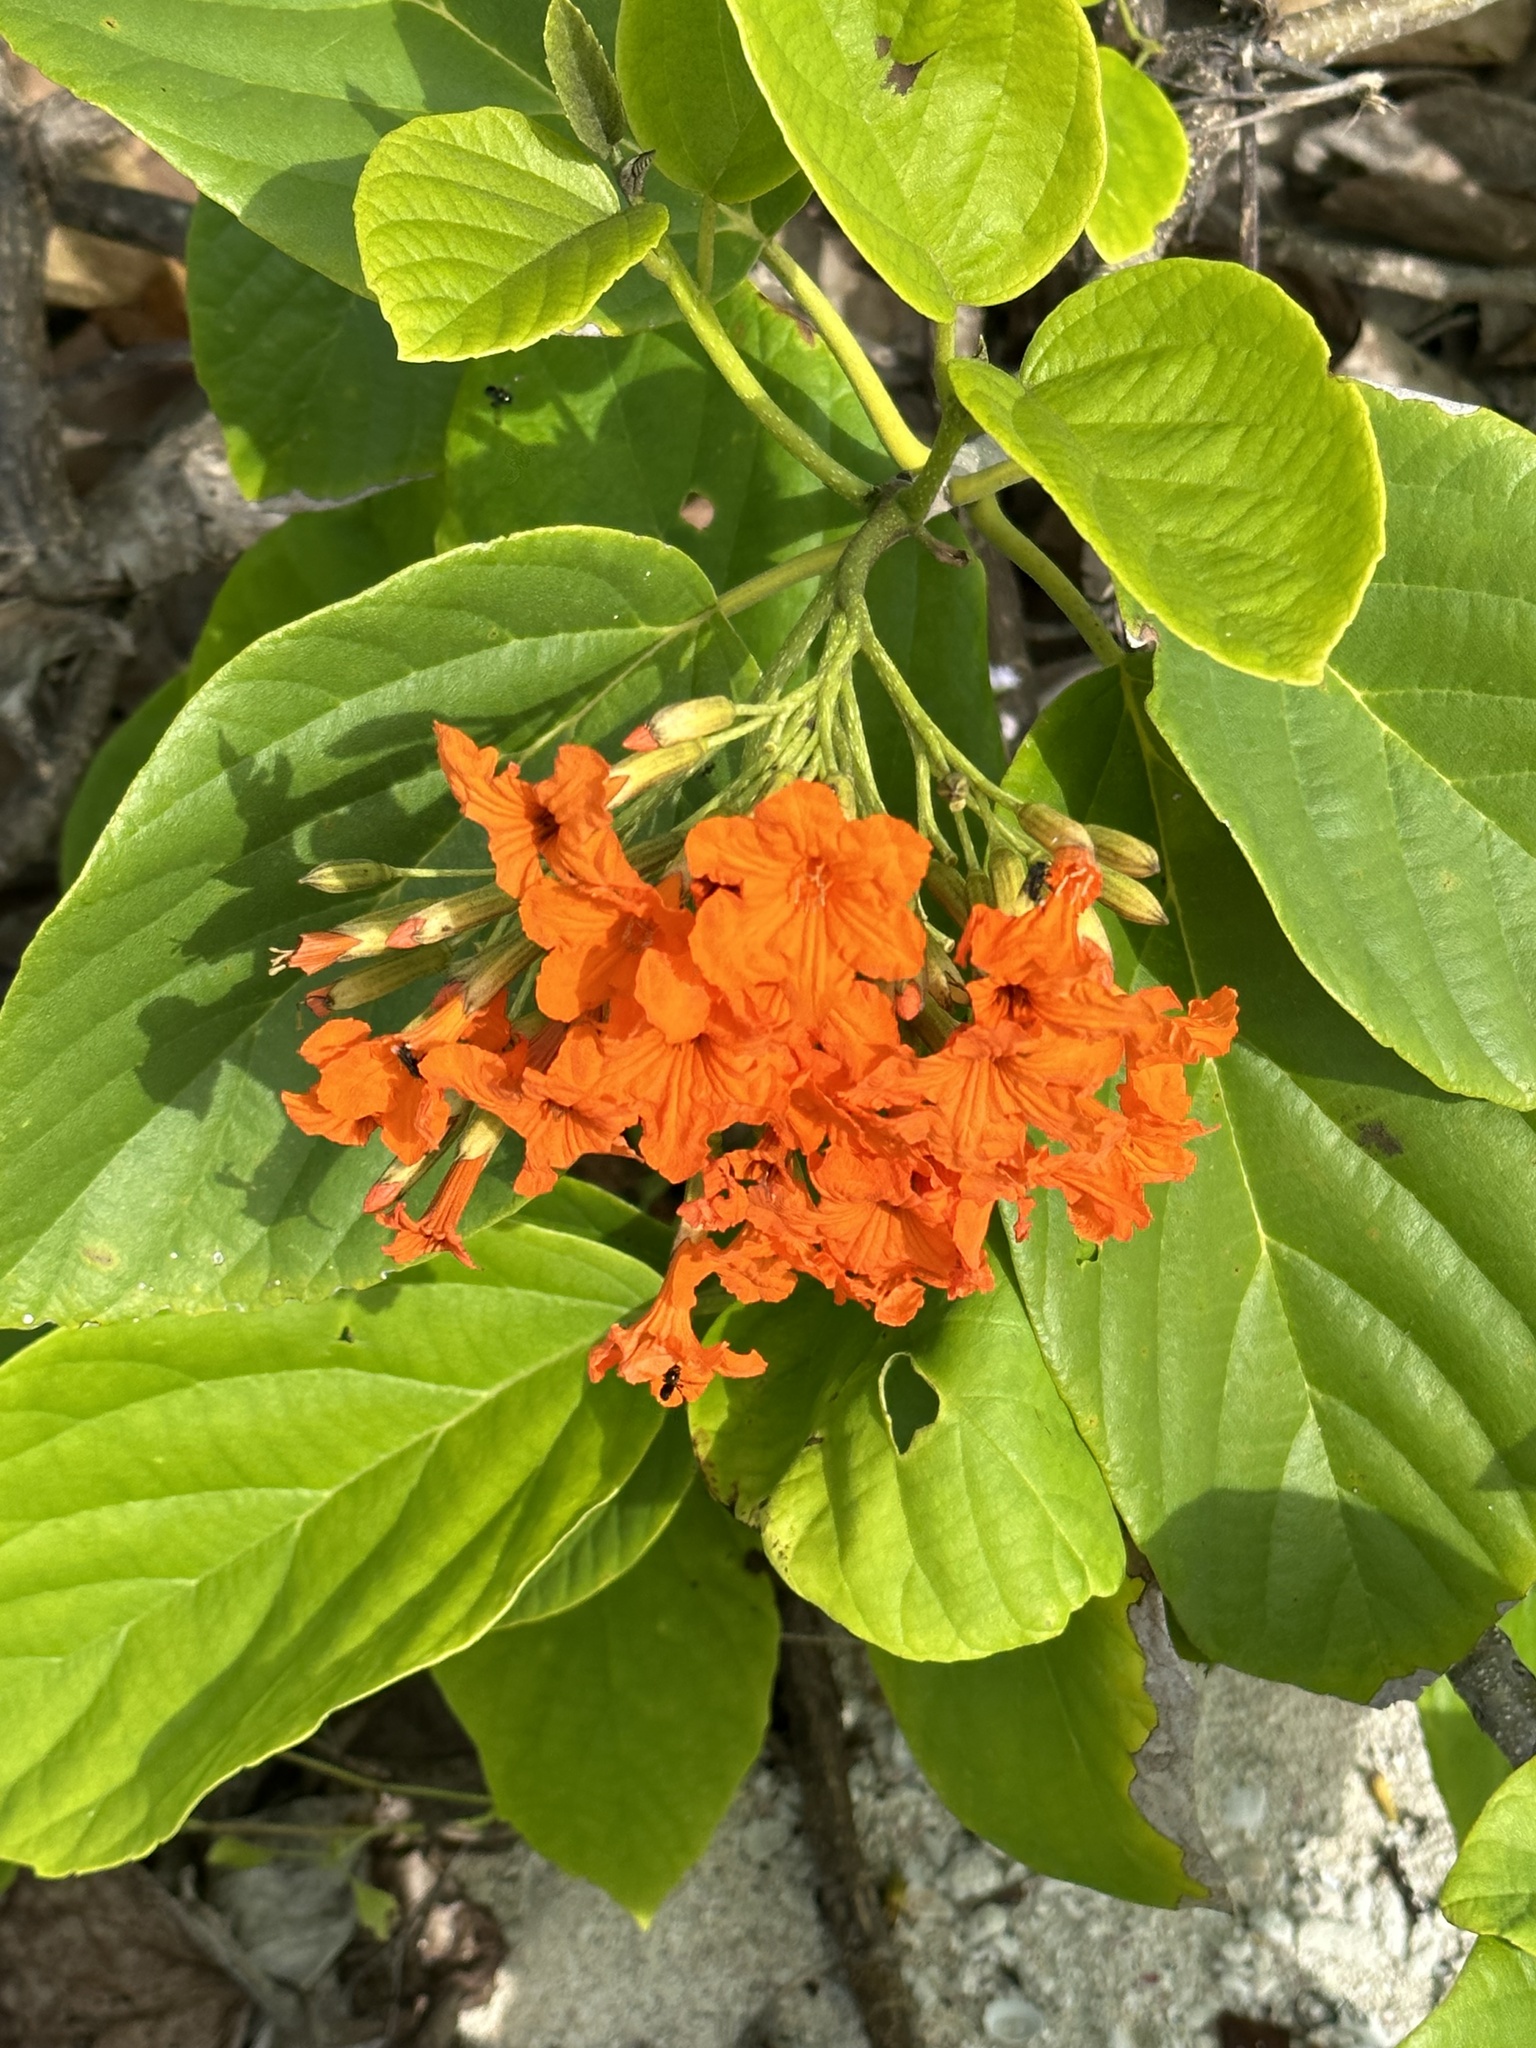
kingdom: Plantae
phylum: Tracheophyta
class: Magnoliopsida
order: Boraginales
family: Cordiaceae
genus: Cordia
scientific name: Cordia sebestena
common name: Largeleaf geigertree
